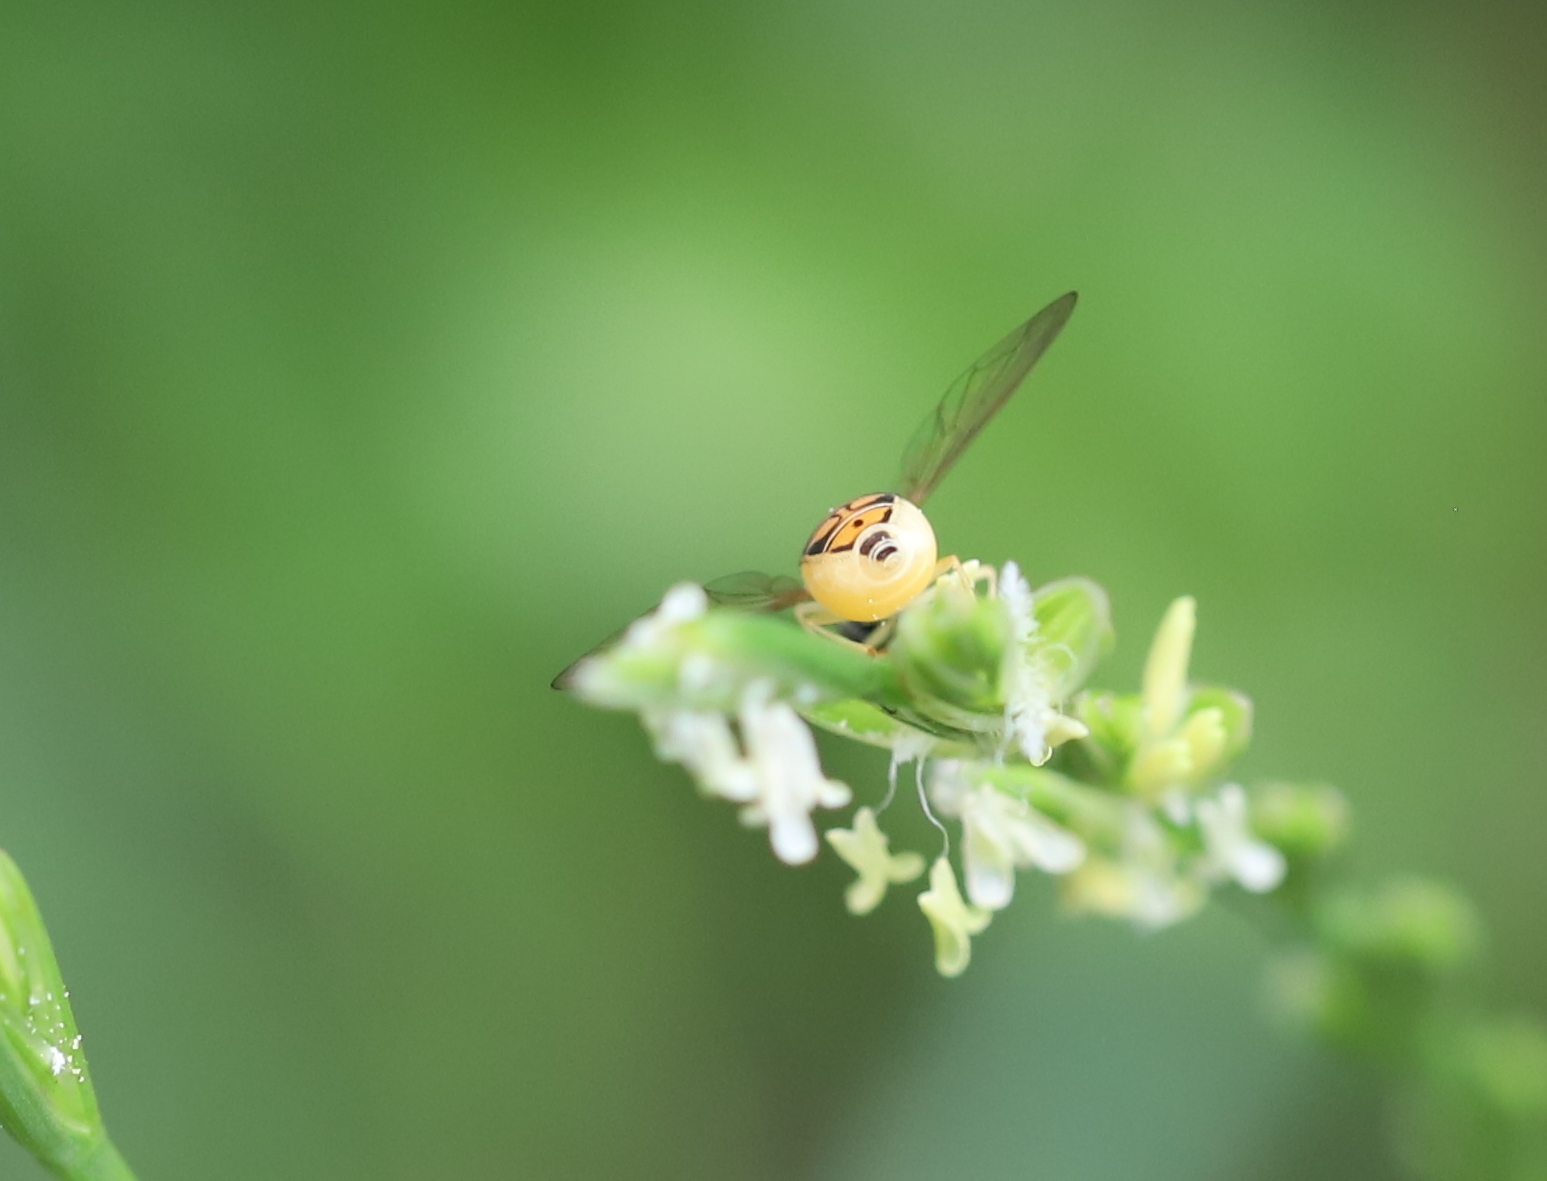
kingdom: Animalia
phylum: Arthropoda
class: Insecta
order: Diptera
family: Syrphidae
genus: Toxomerus
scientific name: Toxomerus marginatus
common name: Syrphid fly
